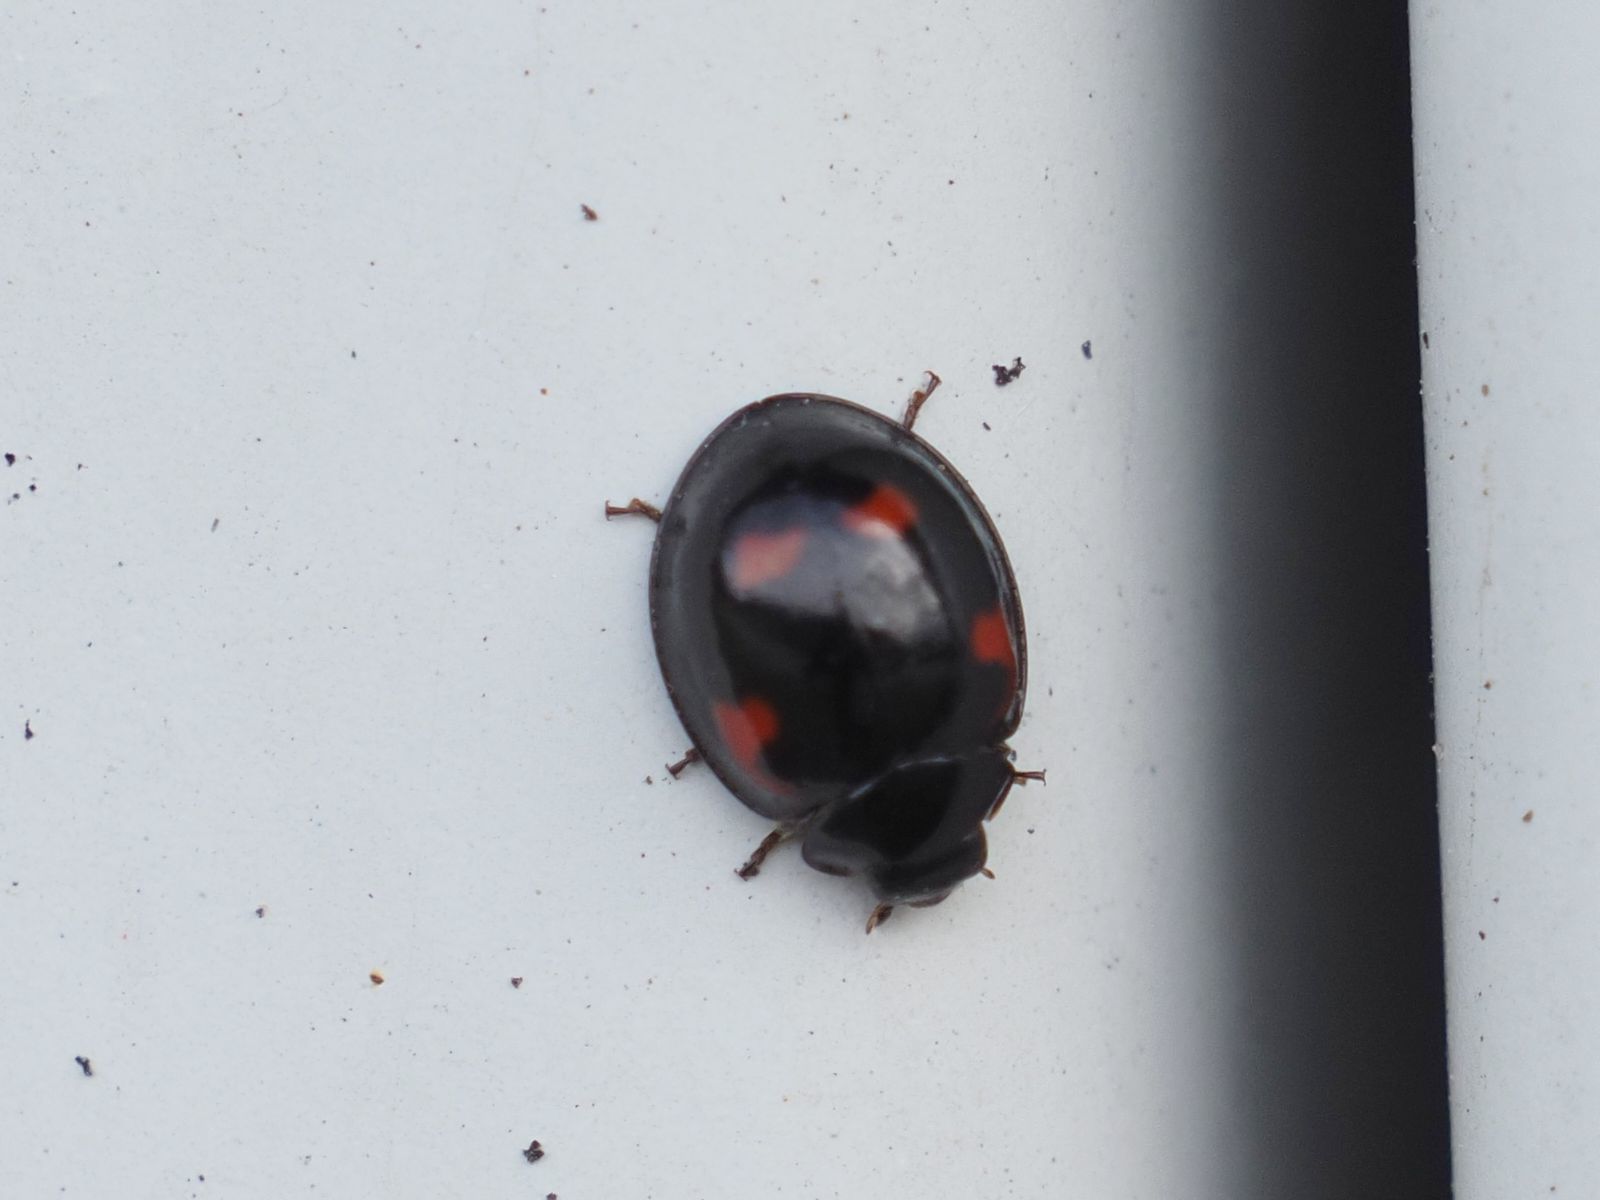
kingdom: Animalia
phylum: Arthropoda
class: Insecta
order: Coleoptera
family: Coccinellidae
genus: Brumus
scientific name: Brumus quadripustulatus
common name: Ladybird beetle
